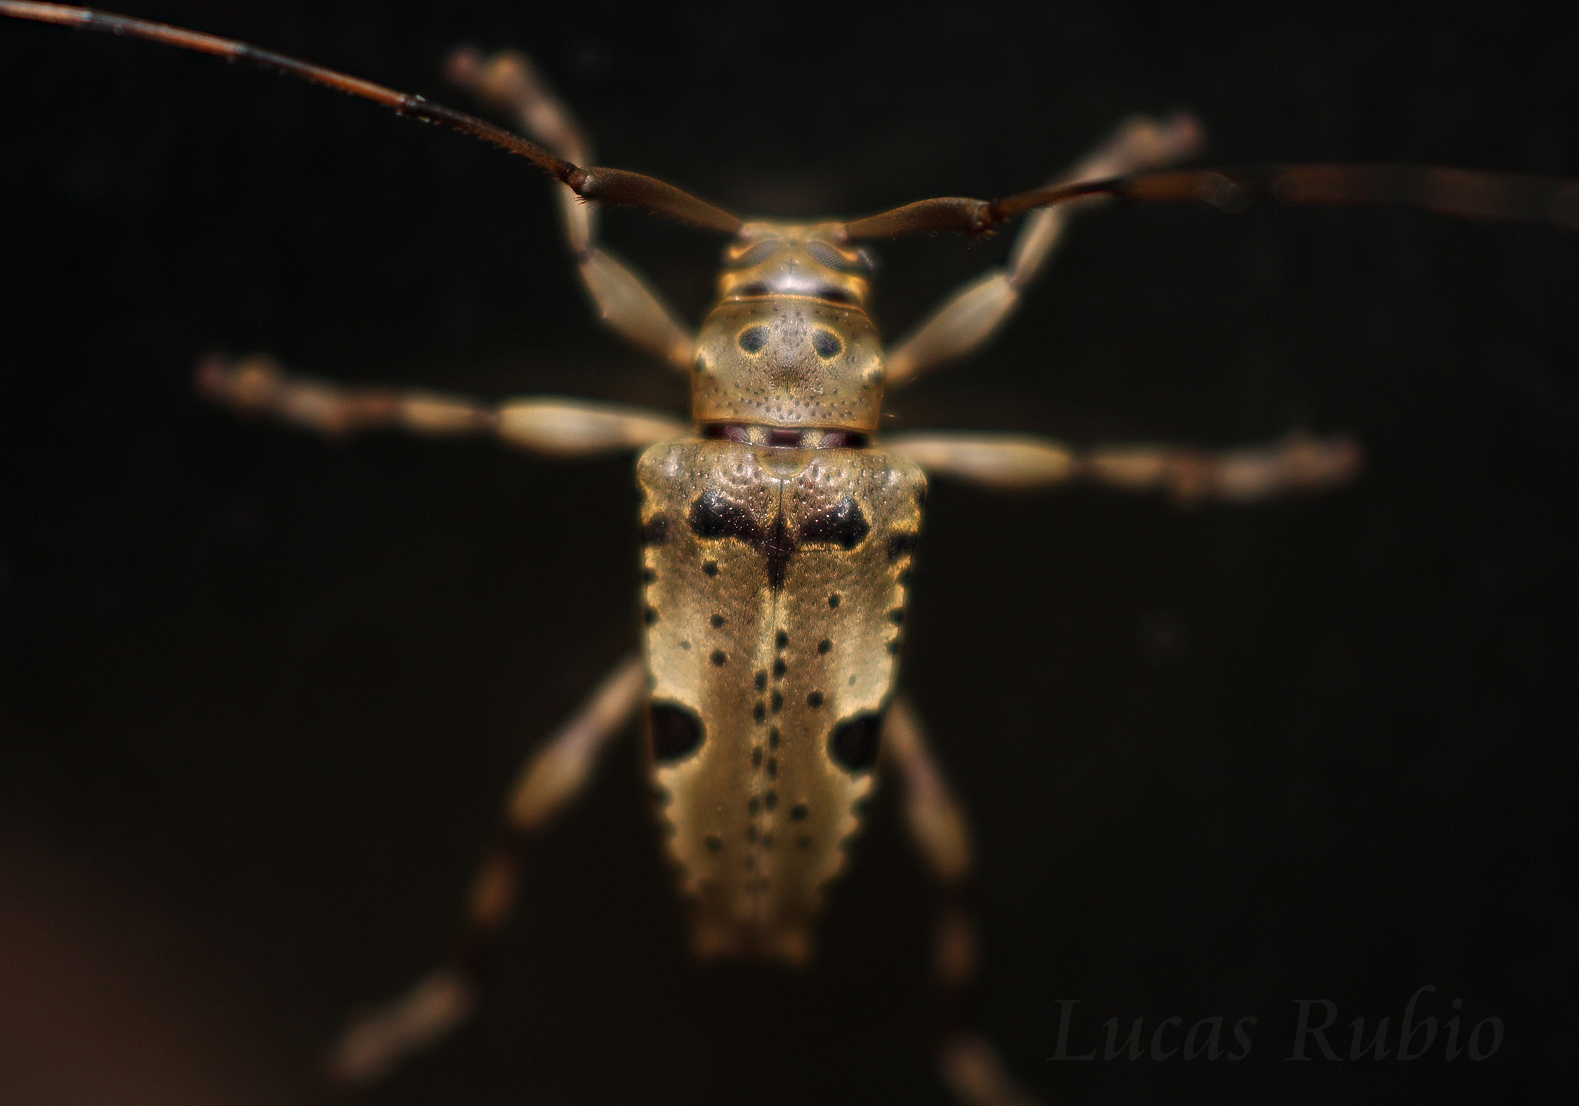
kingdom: Animalia
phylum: Arthropoda
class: Insecta
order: Coleoptera
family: Cerambycidae
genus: Nealcidion
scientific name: Nealcidion simillimum
